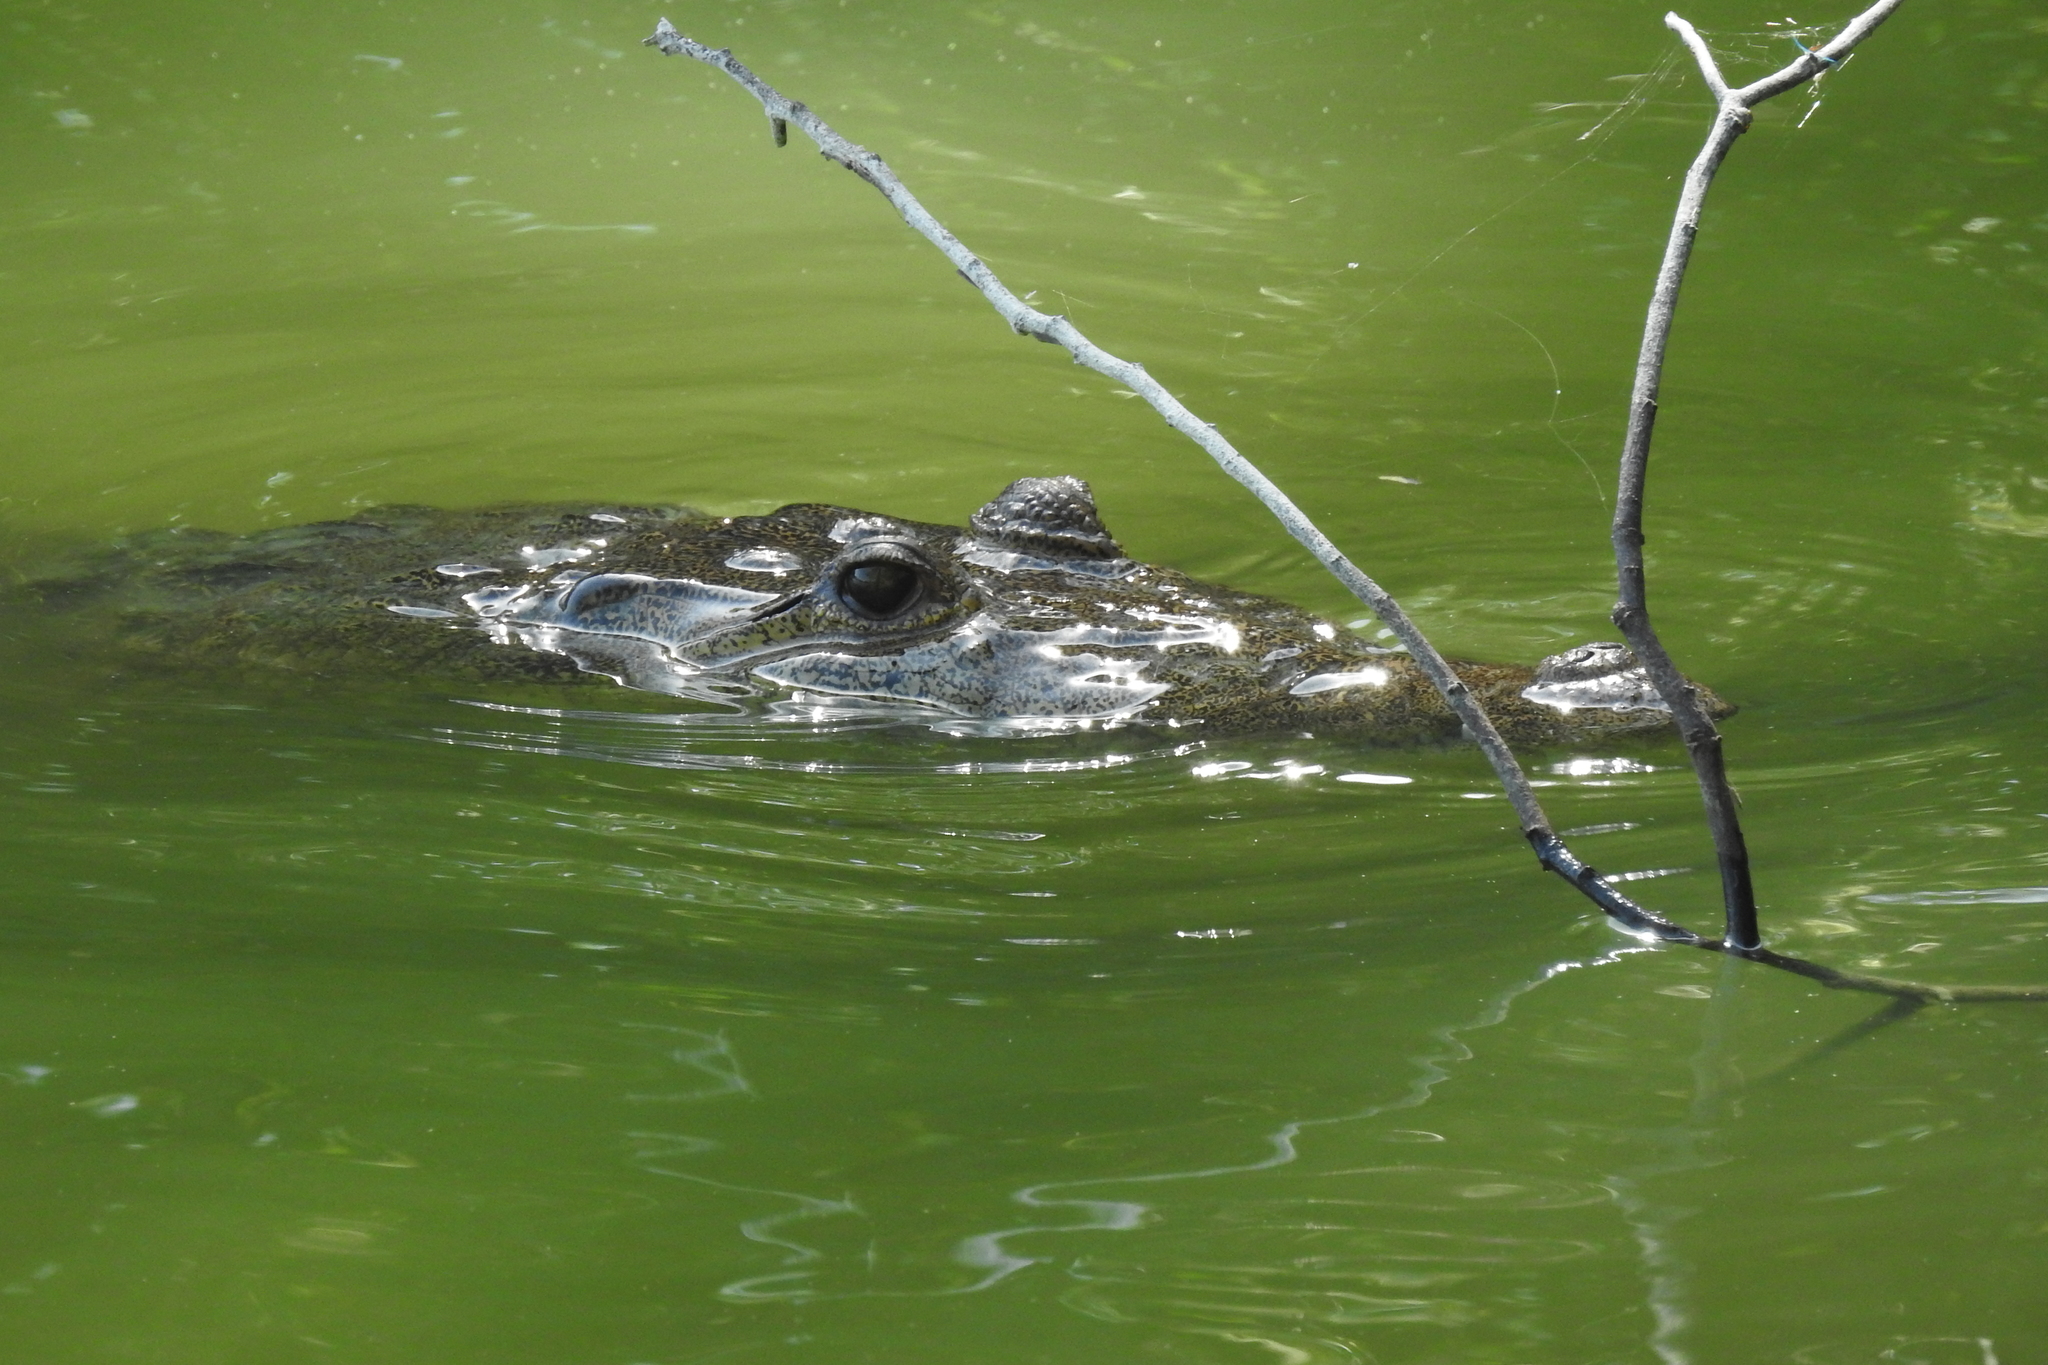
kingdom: Animalia
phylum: Chordata
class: Crocodylia
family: Crocodylidae
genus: Crocodylus
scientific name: Crocodylus moreletii
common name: Morelet's crocodile
